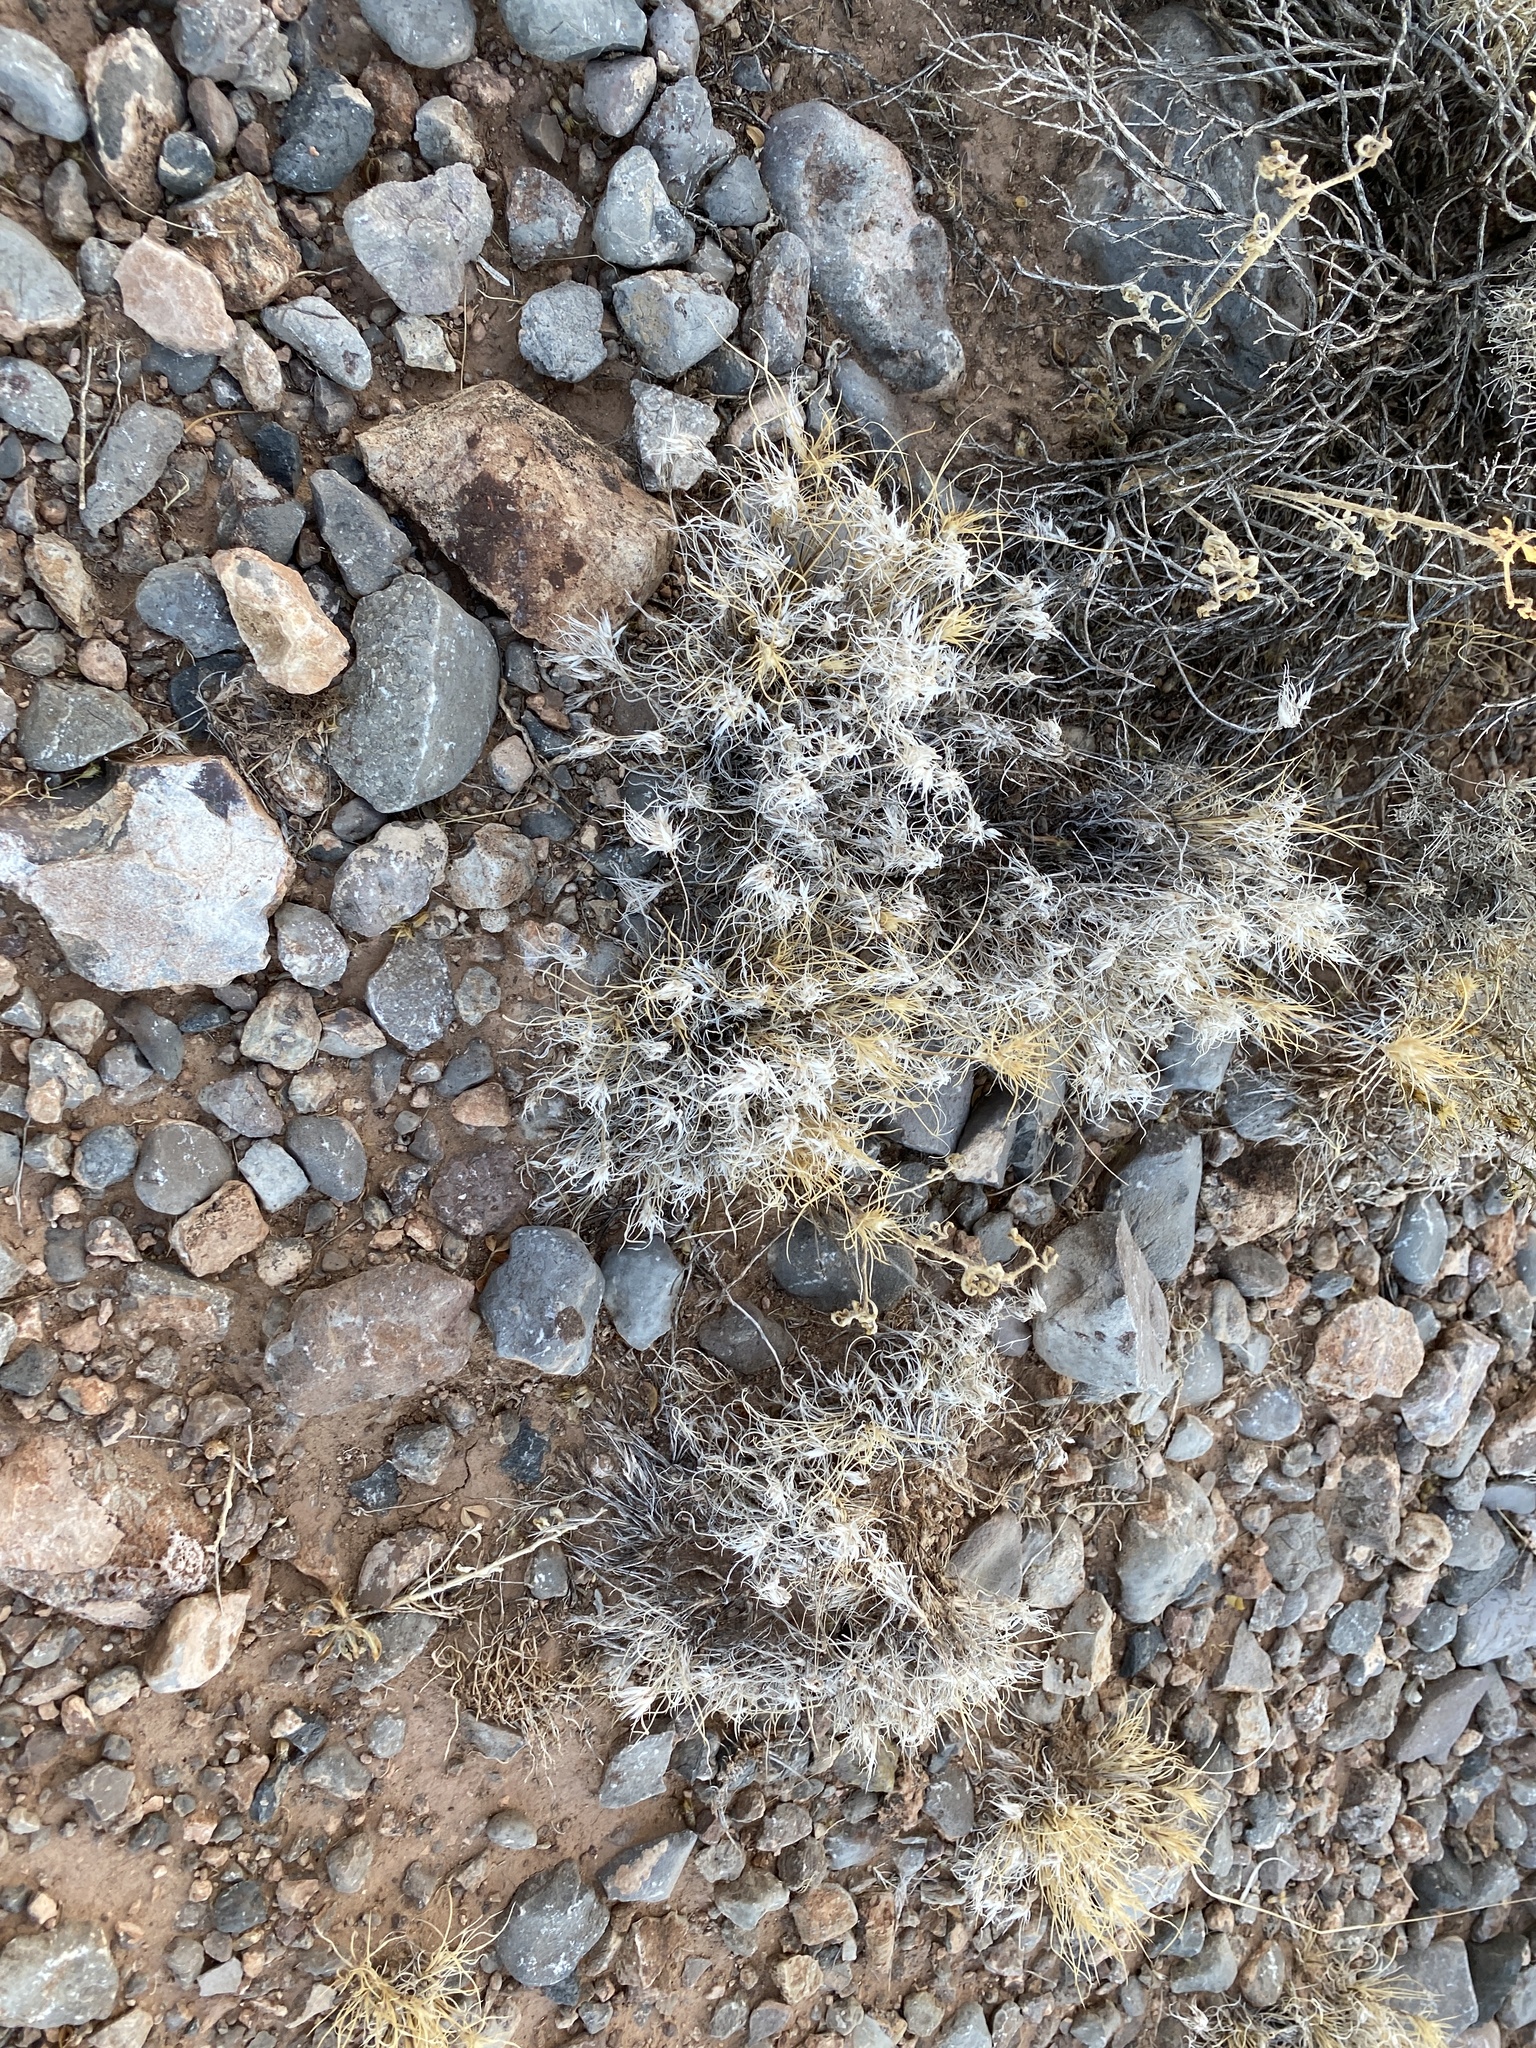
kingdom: Plantae
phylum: Tracheophyta
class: Liliopsida
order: Poales
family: Poaceae
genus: Dasyochloa
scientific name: Dasyochloa pulchella
